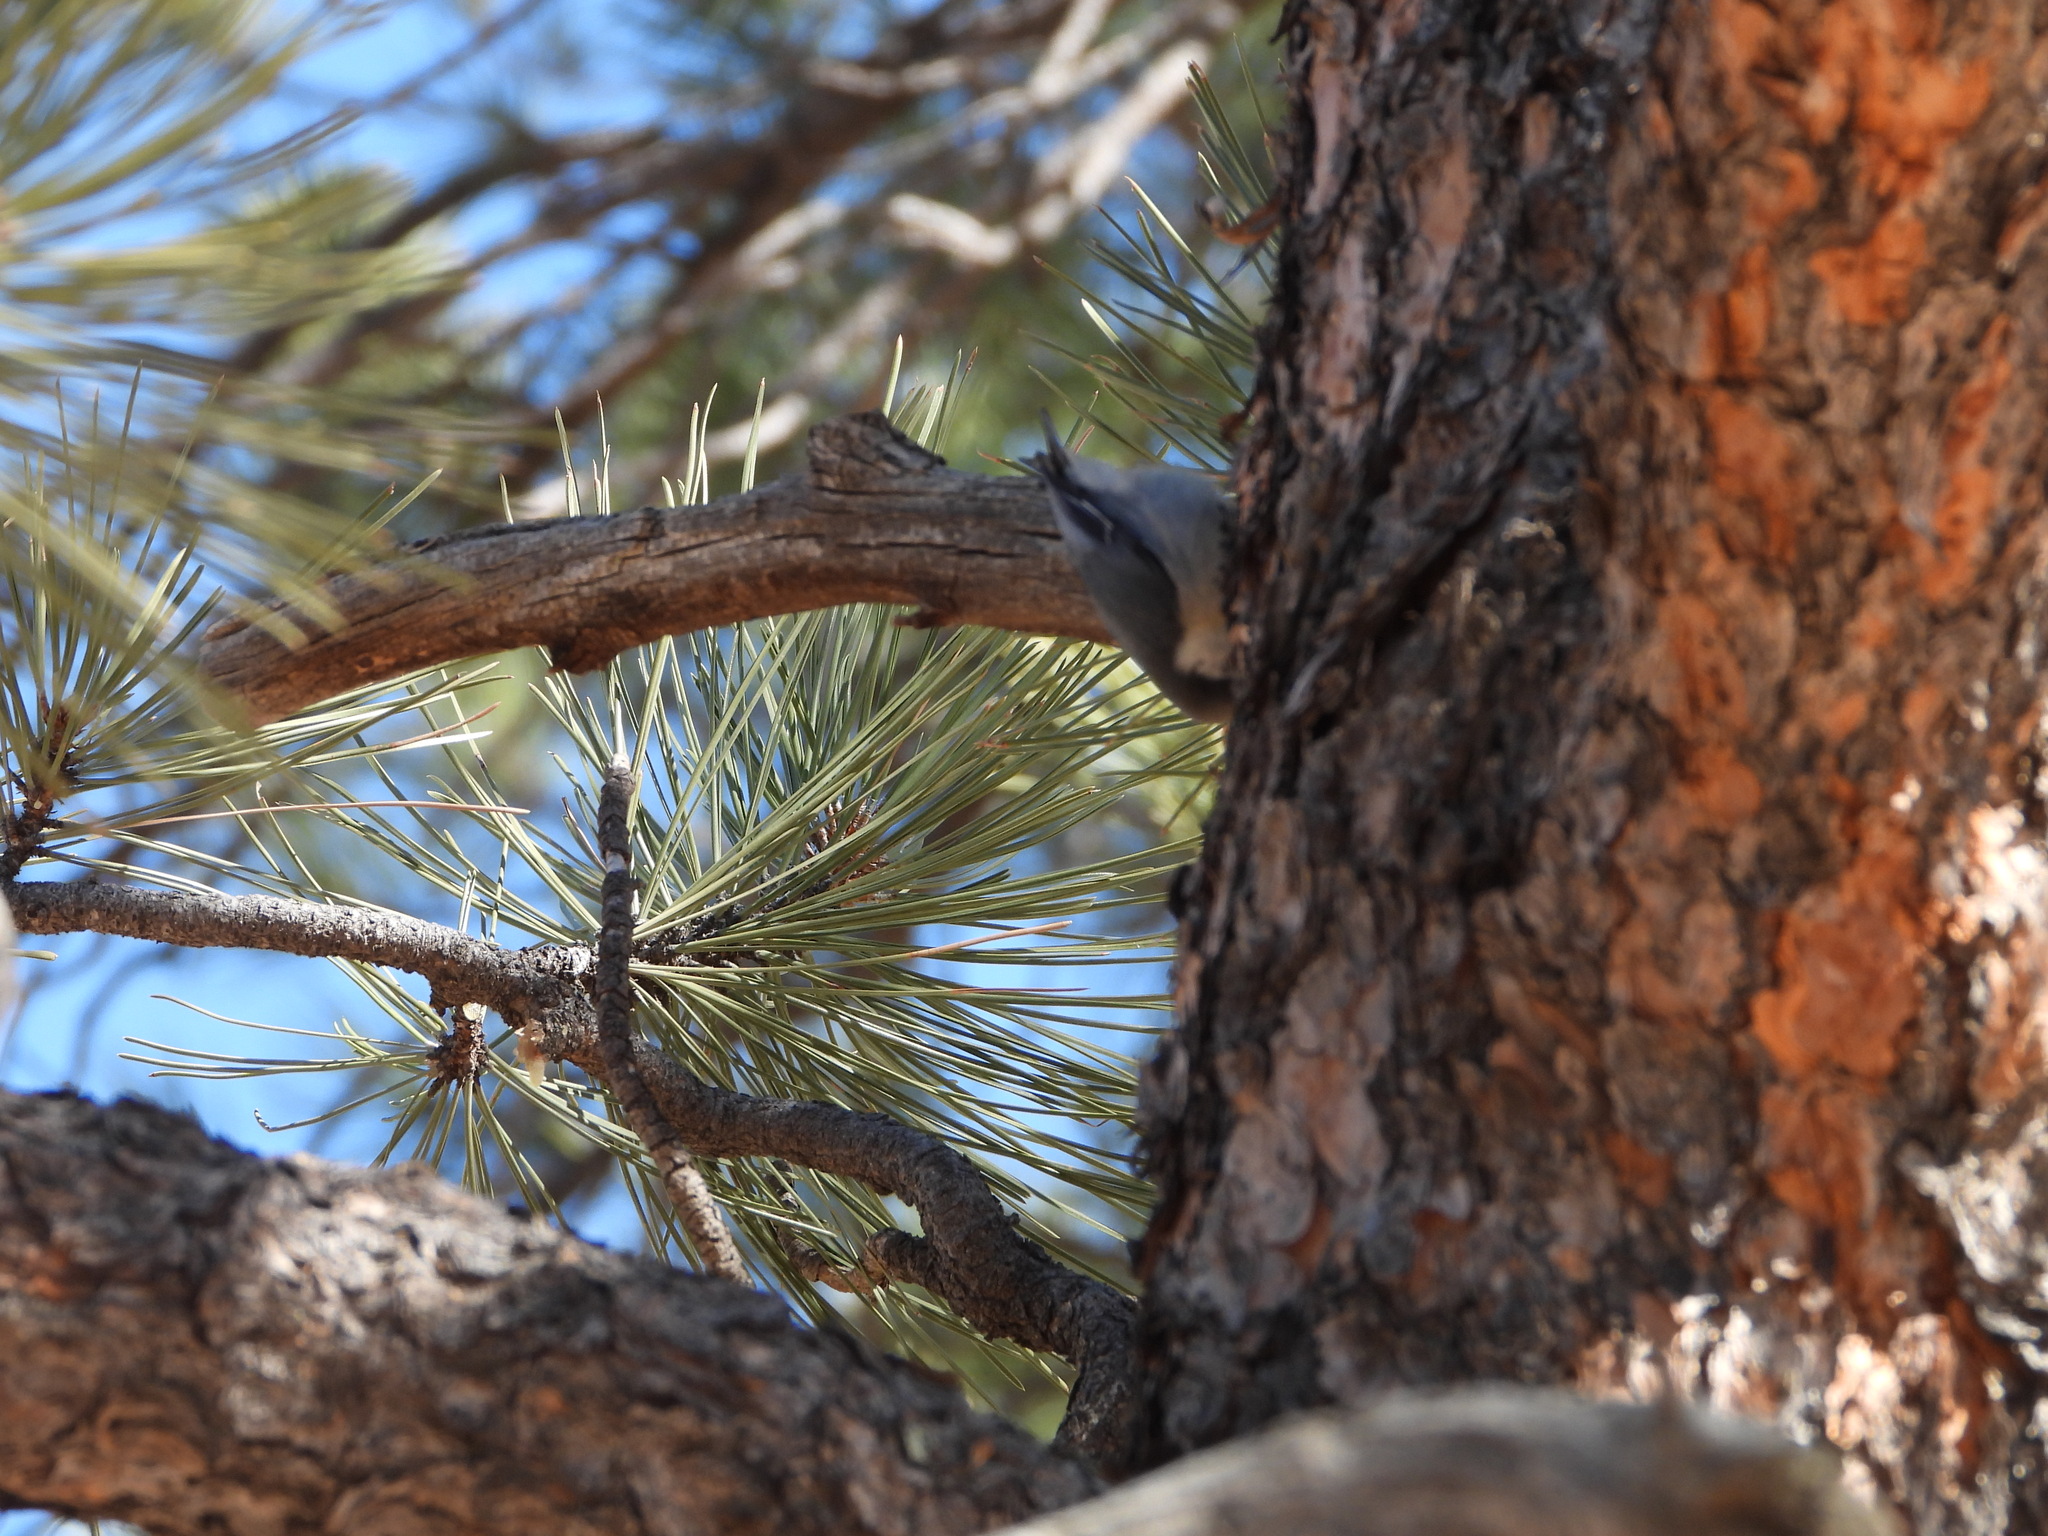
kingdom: Animalia
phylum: Chordata
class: Aves
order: Passeriformes
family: Sittidae
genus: Sitta
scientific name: Sitta pygmaea
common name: Pygmy nuthatch
